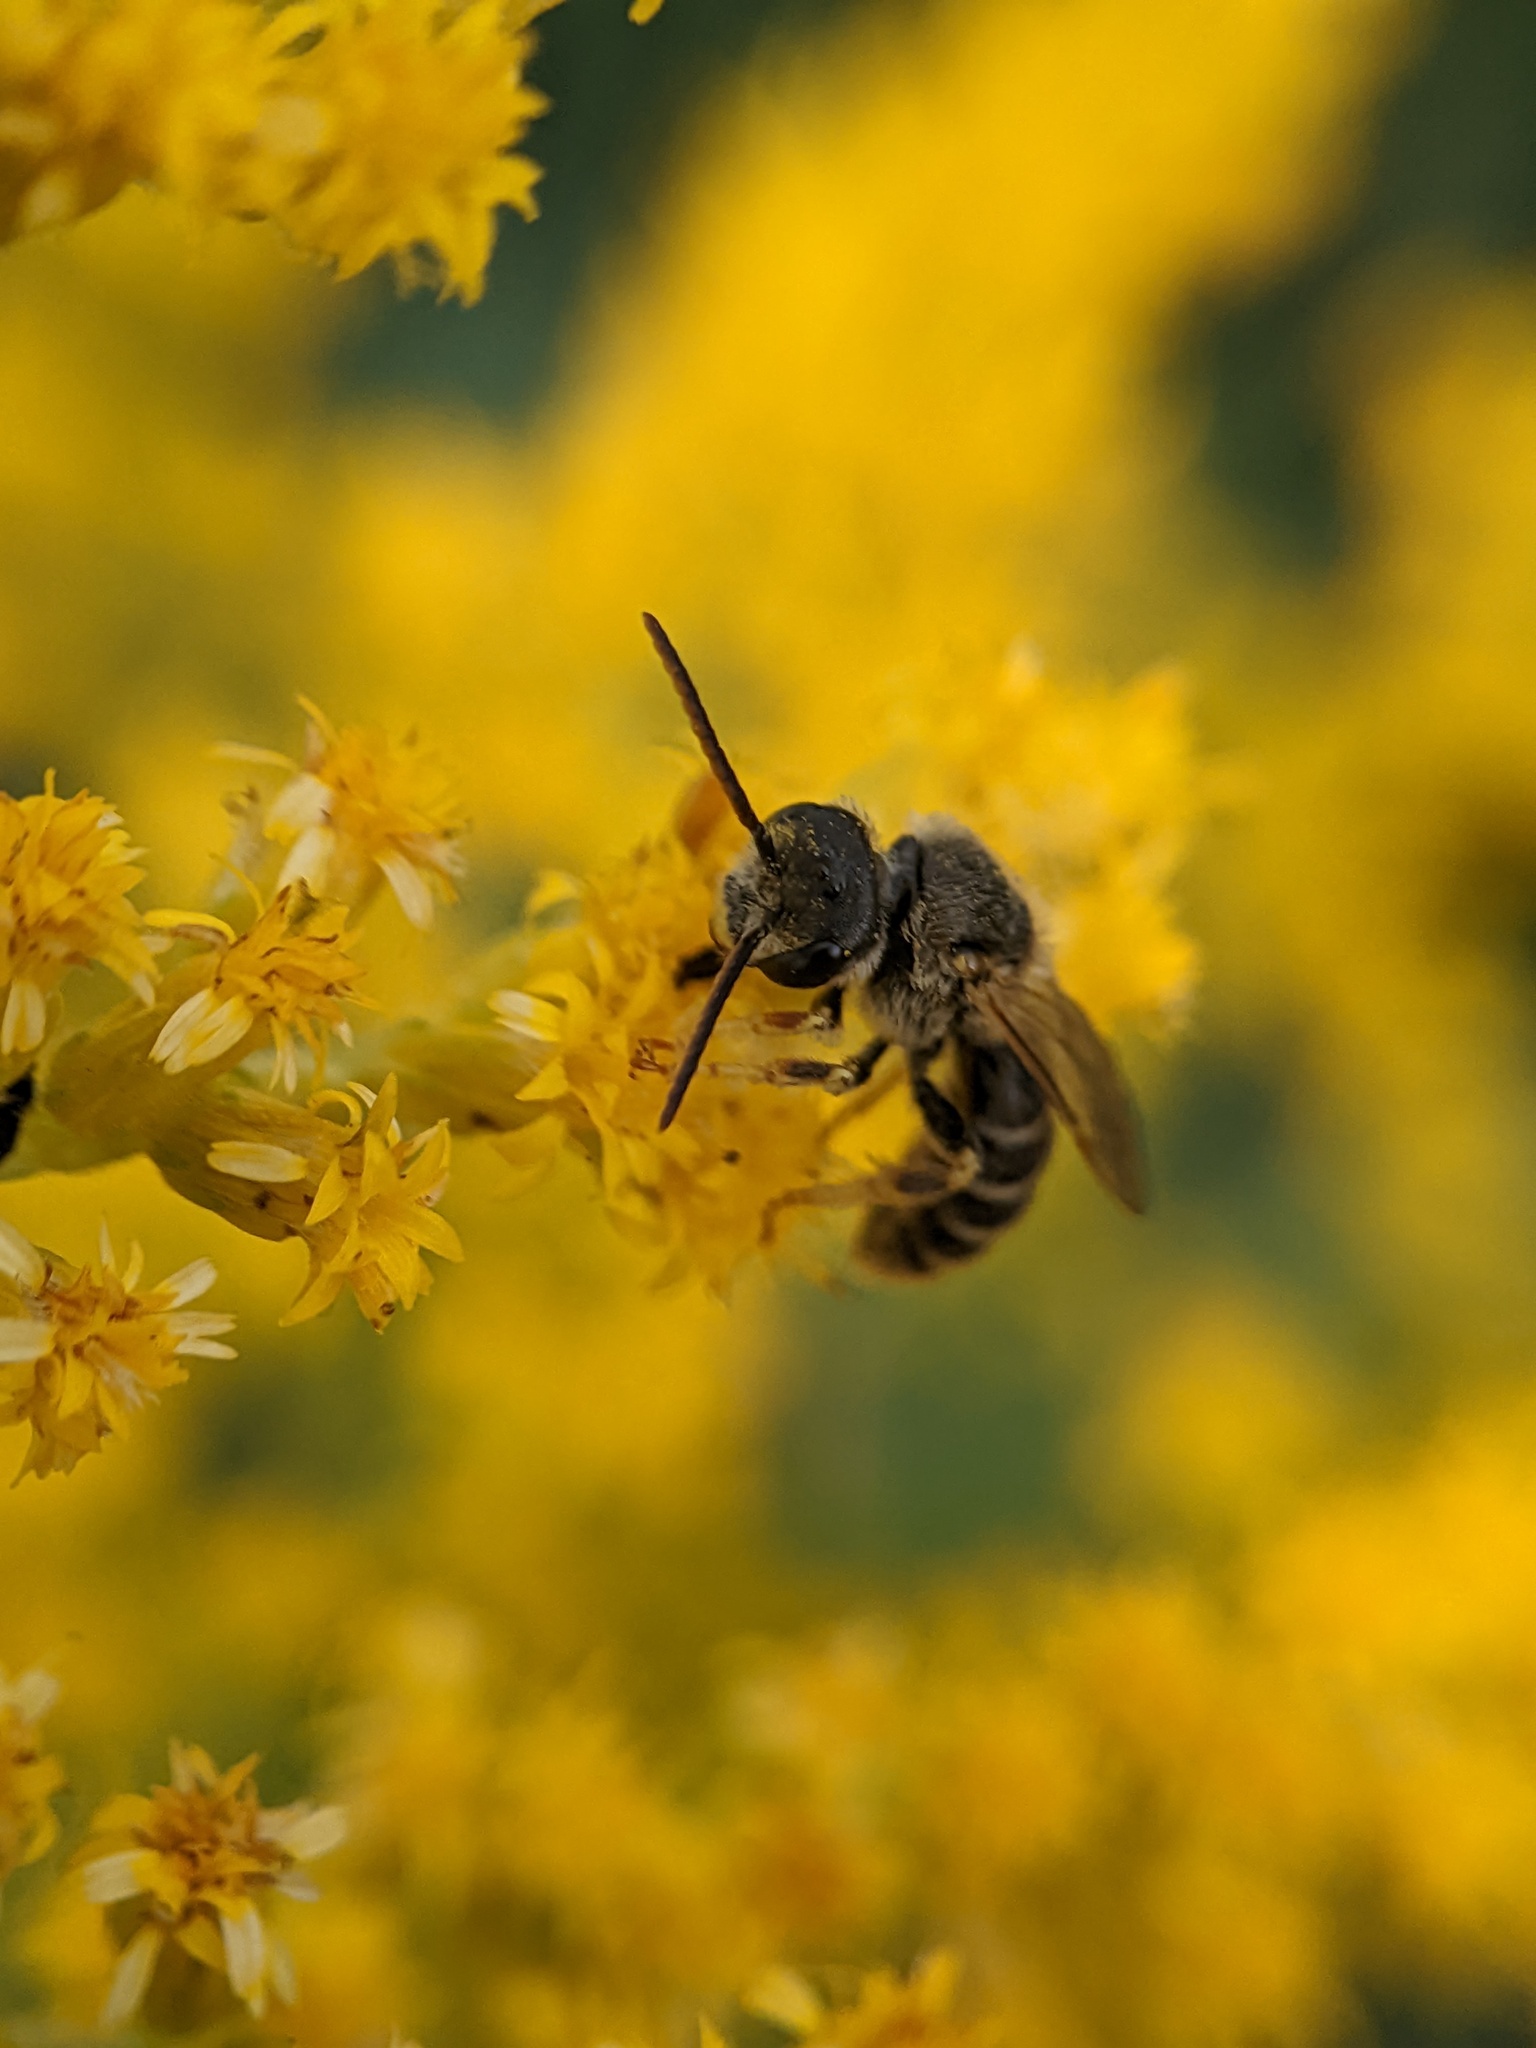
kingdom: Animalia
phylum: Arthropoda
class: Insecta
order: Hymenoptera
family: Halictidae
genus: Halictus
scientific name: Halictus ligatus
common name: Ligated furrow bee
